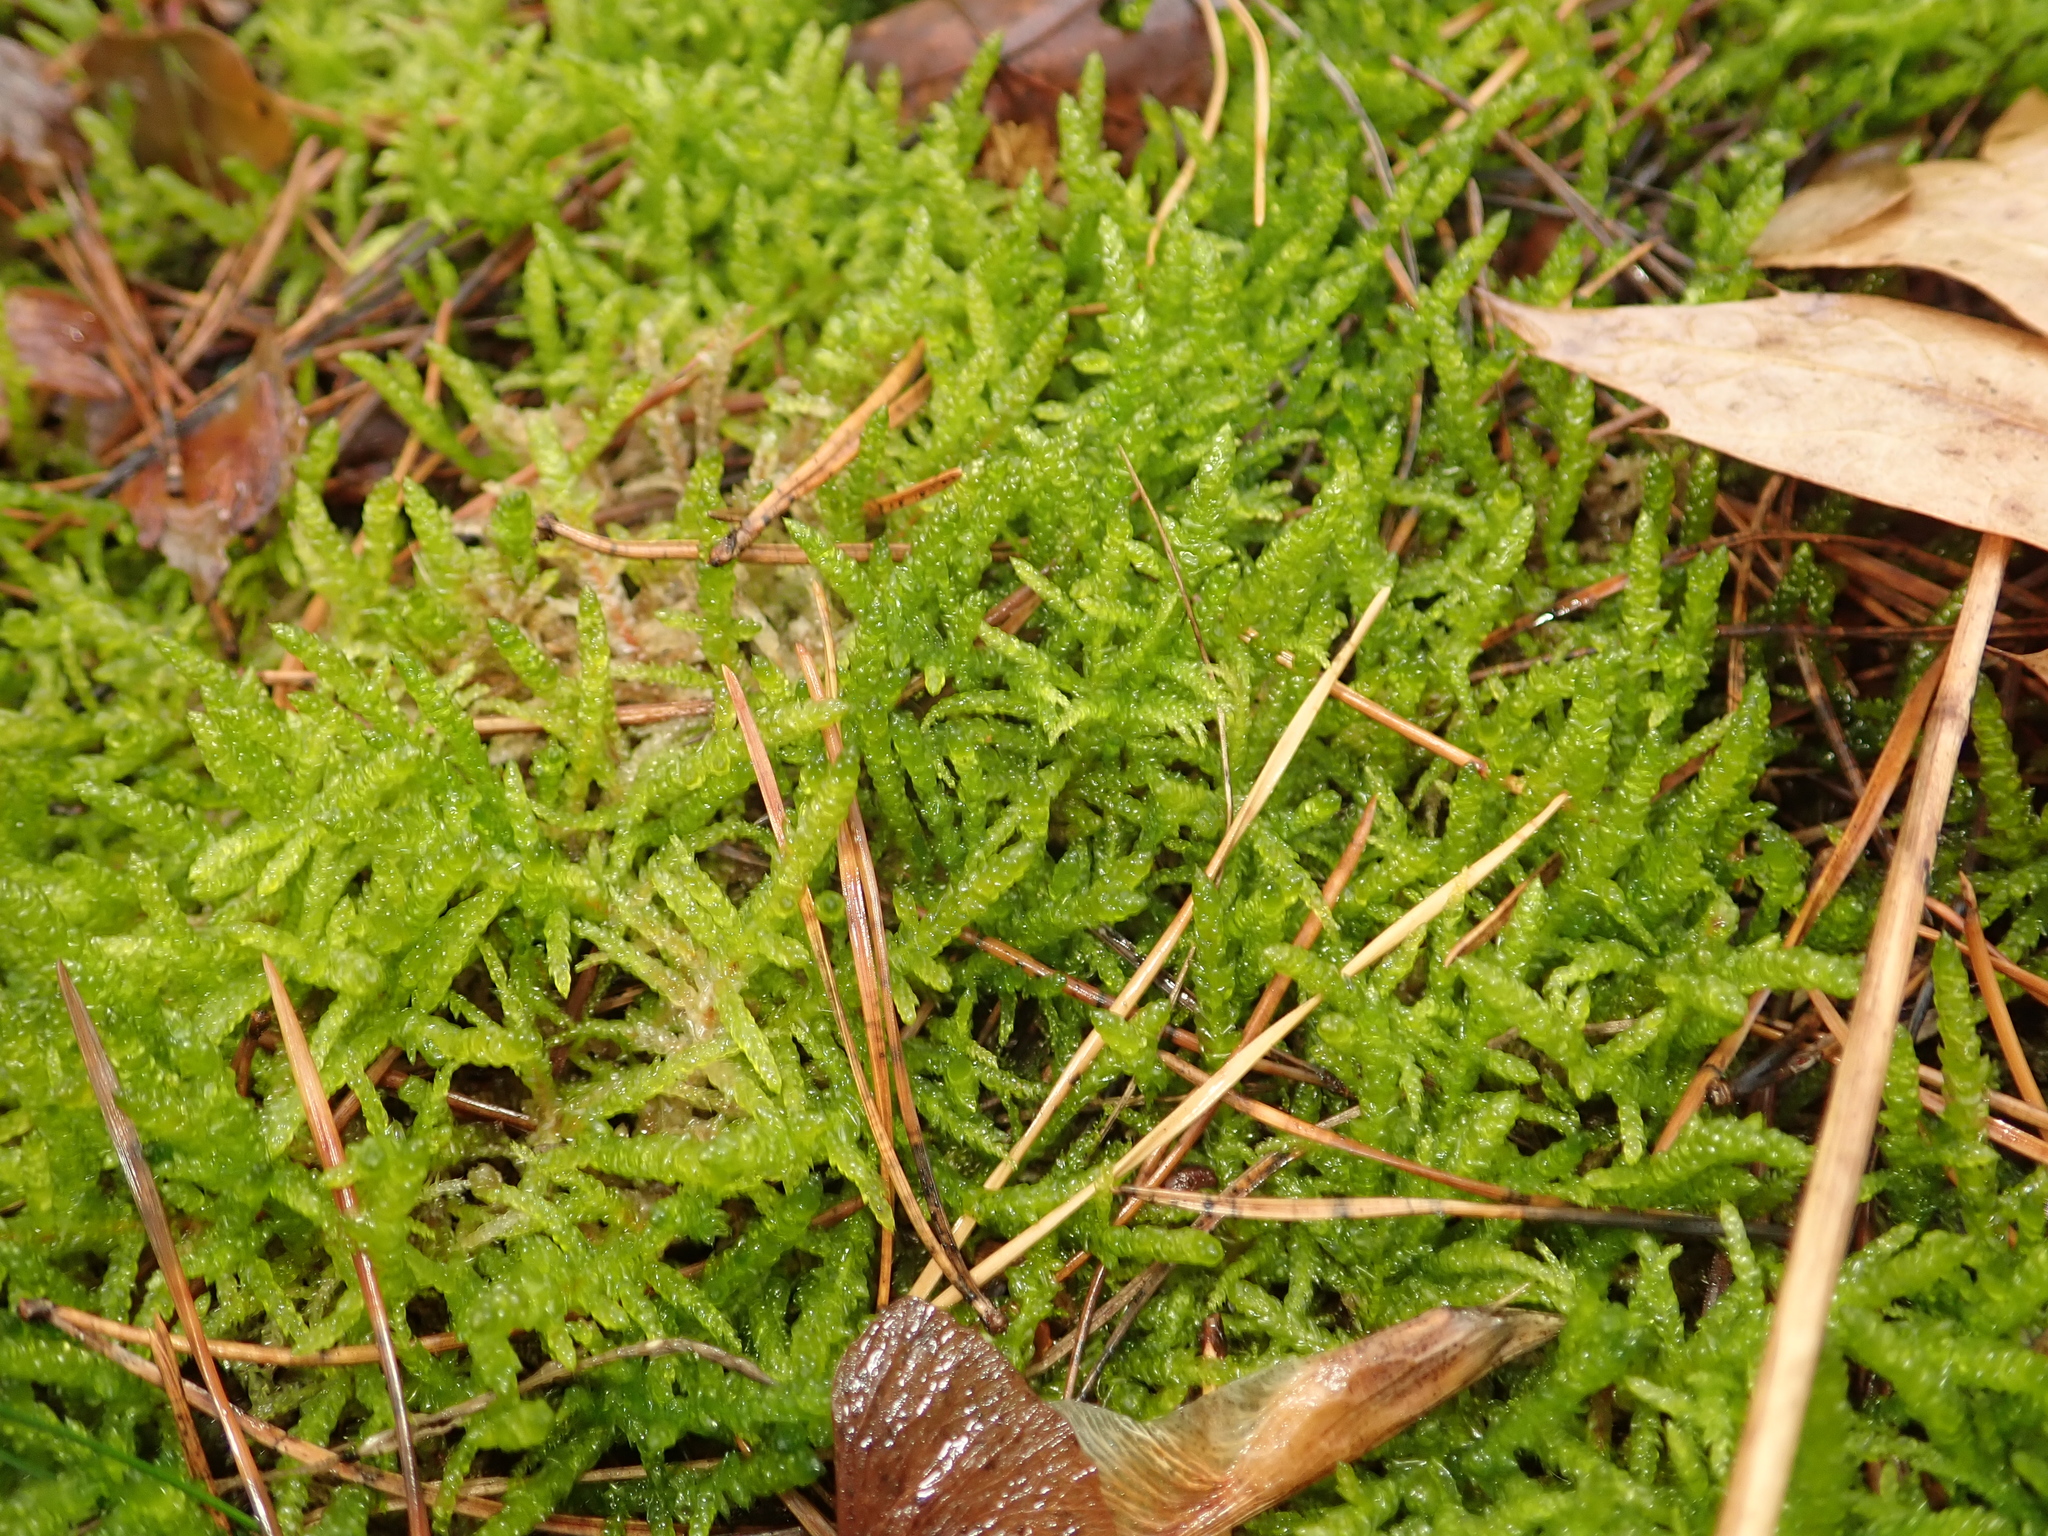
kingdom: Plantae
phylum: Bryophyta
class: Bryopsida
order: Hypnales
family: Brachytheciaceae
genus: Pseudoscleropodium
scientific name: Pseudoscleropodium purum
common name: Neat feather-moss
